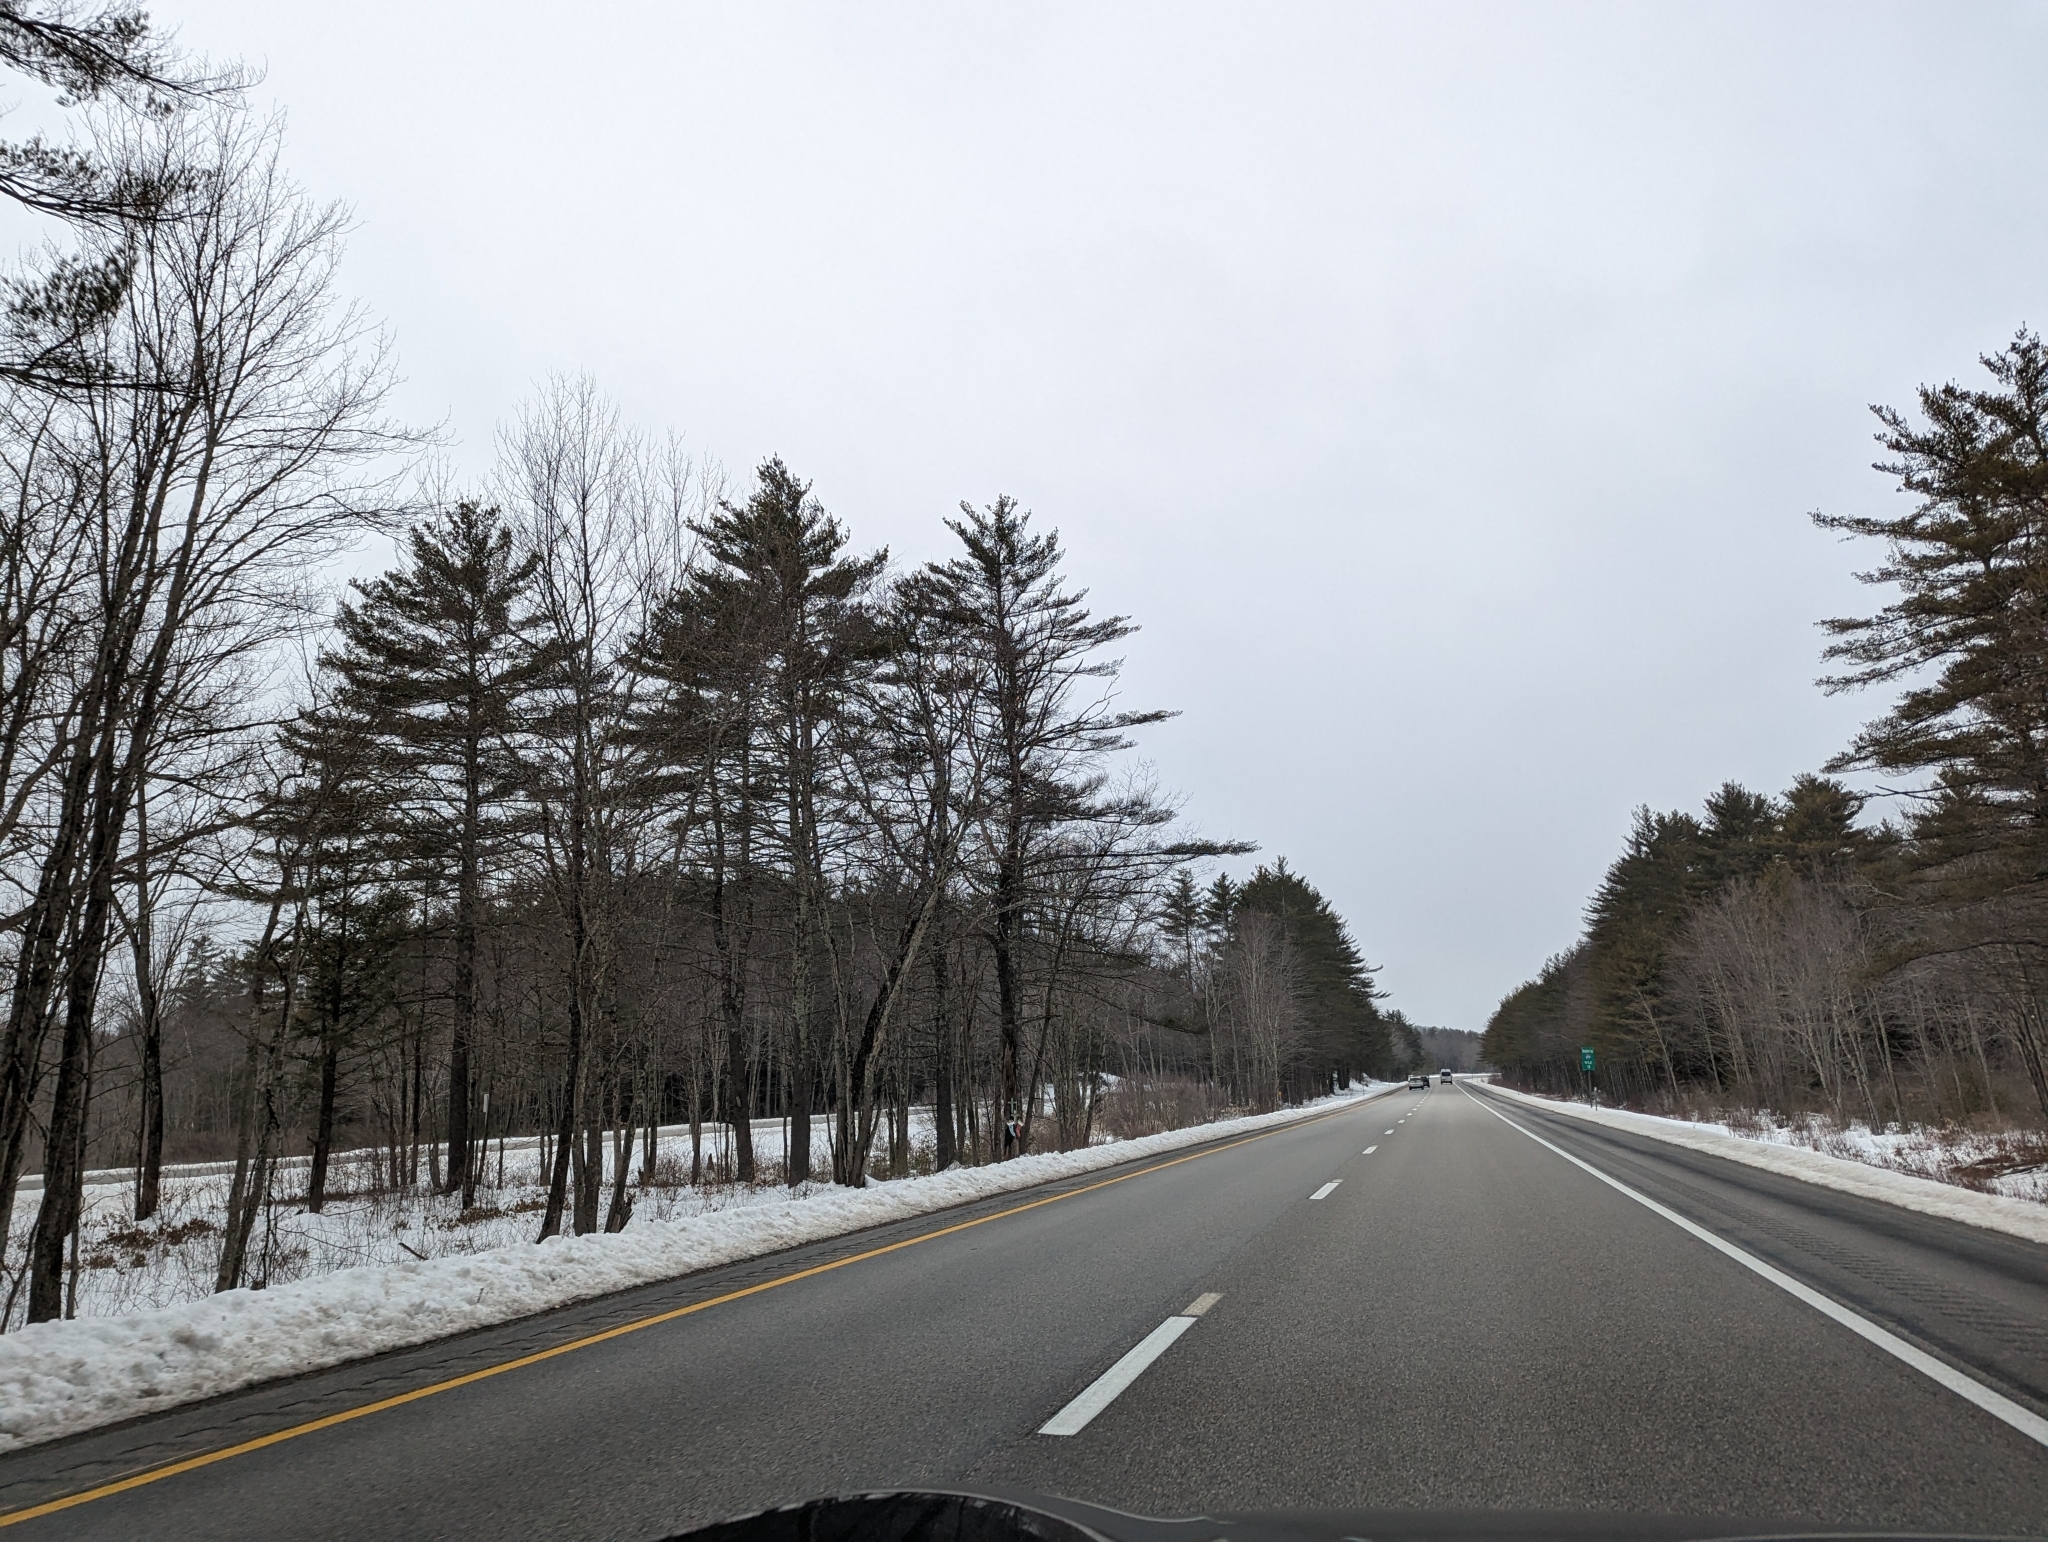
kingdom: Plantae
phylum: Tracheophyta
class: Pinopsida
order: Pinales
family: Pinaceae
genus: Pinus
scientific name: Pinus strobus
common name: Weymouth pine
